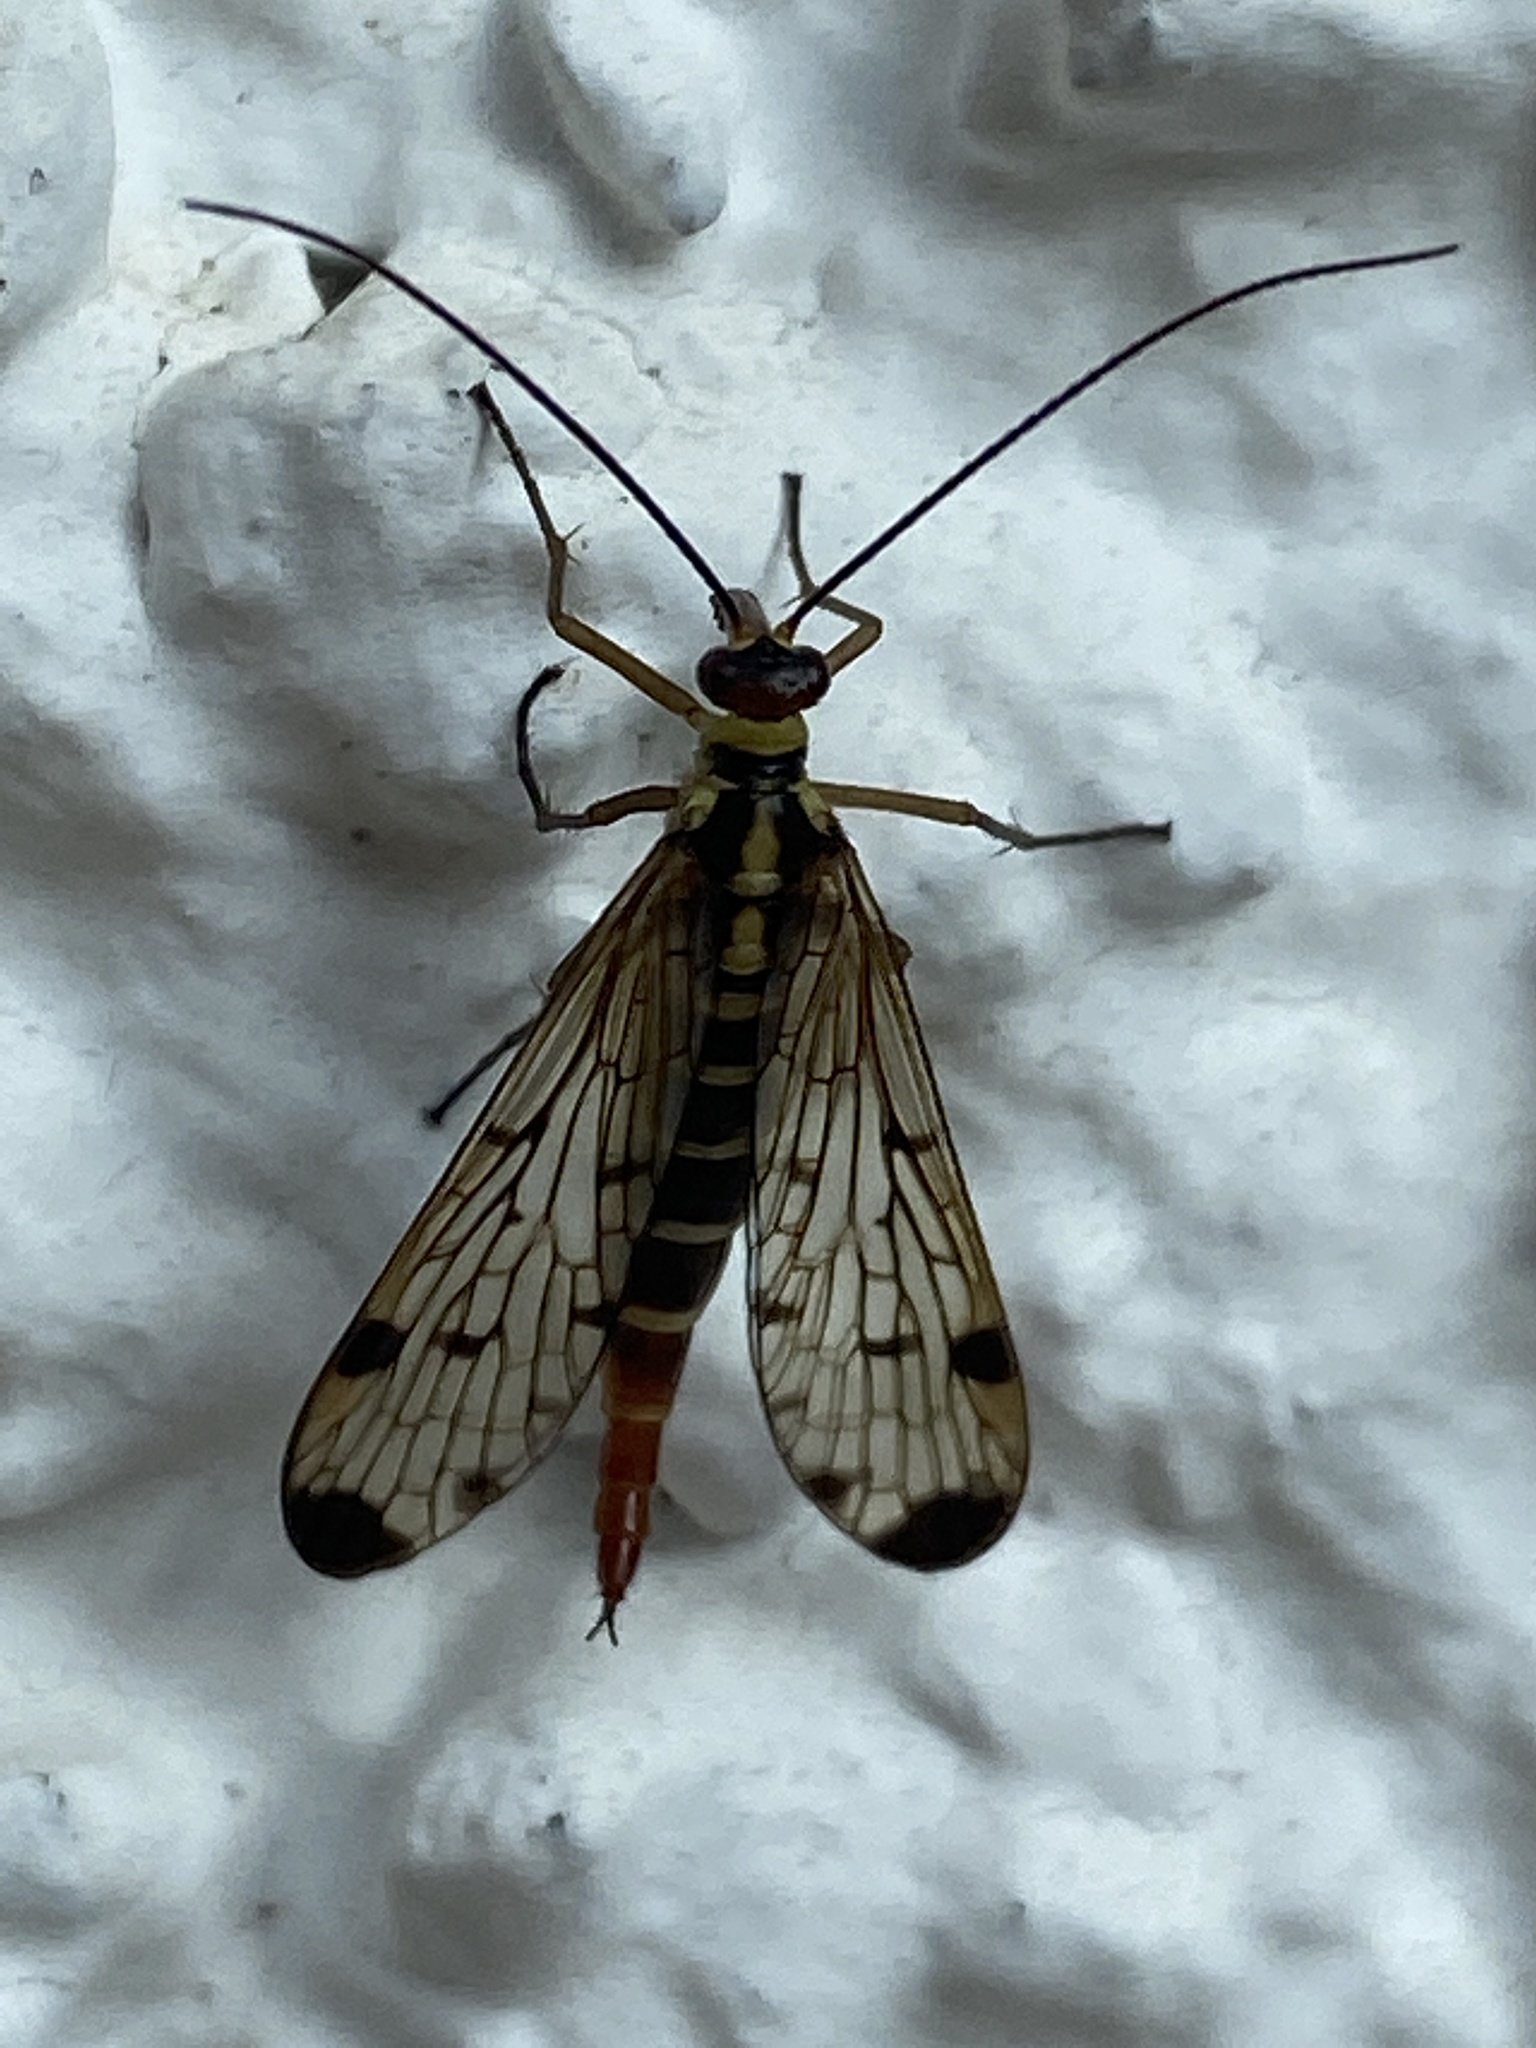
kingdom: Animalia
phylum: Arthropoda
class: Insecta
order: Mecoptera
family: Panorpidae
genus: Panorpa
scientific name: Panorpa germanica
